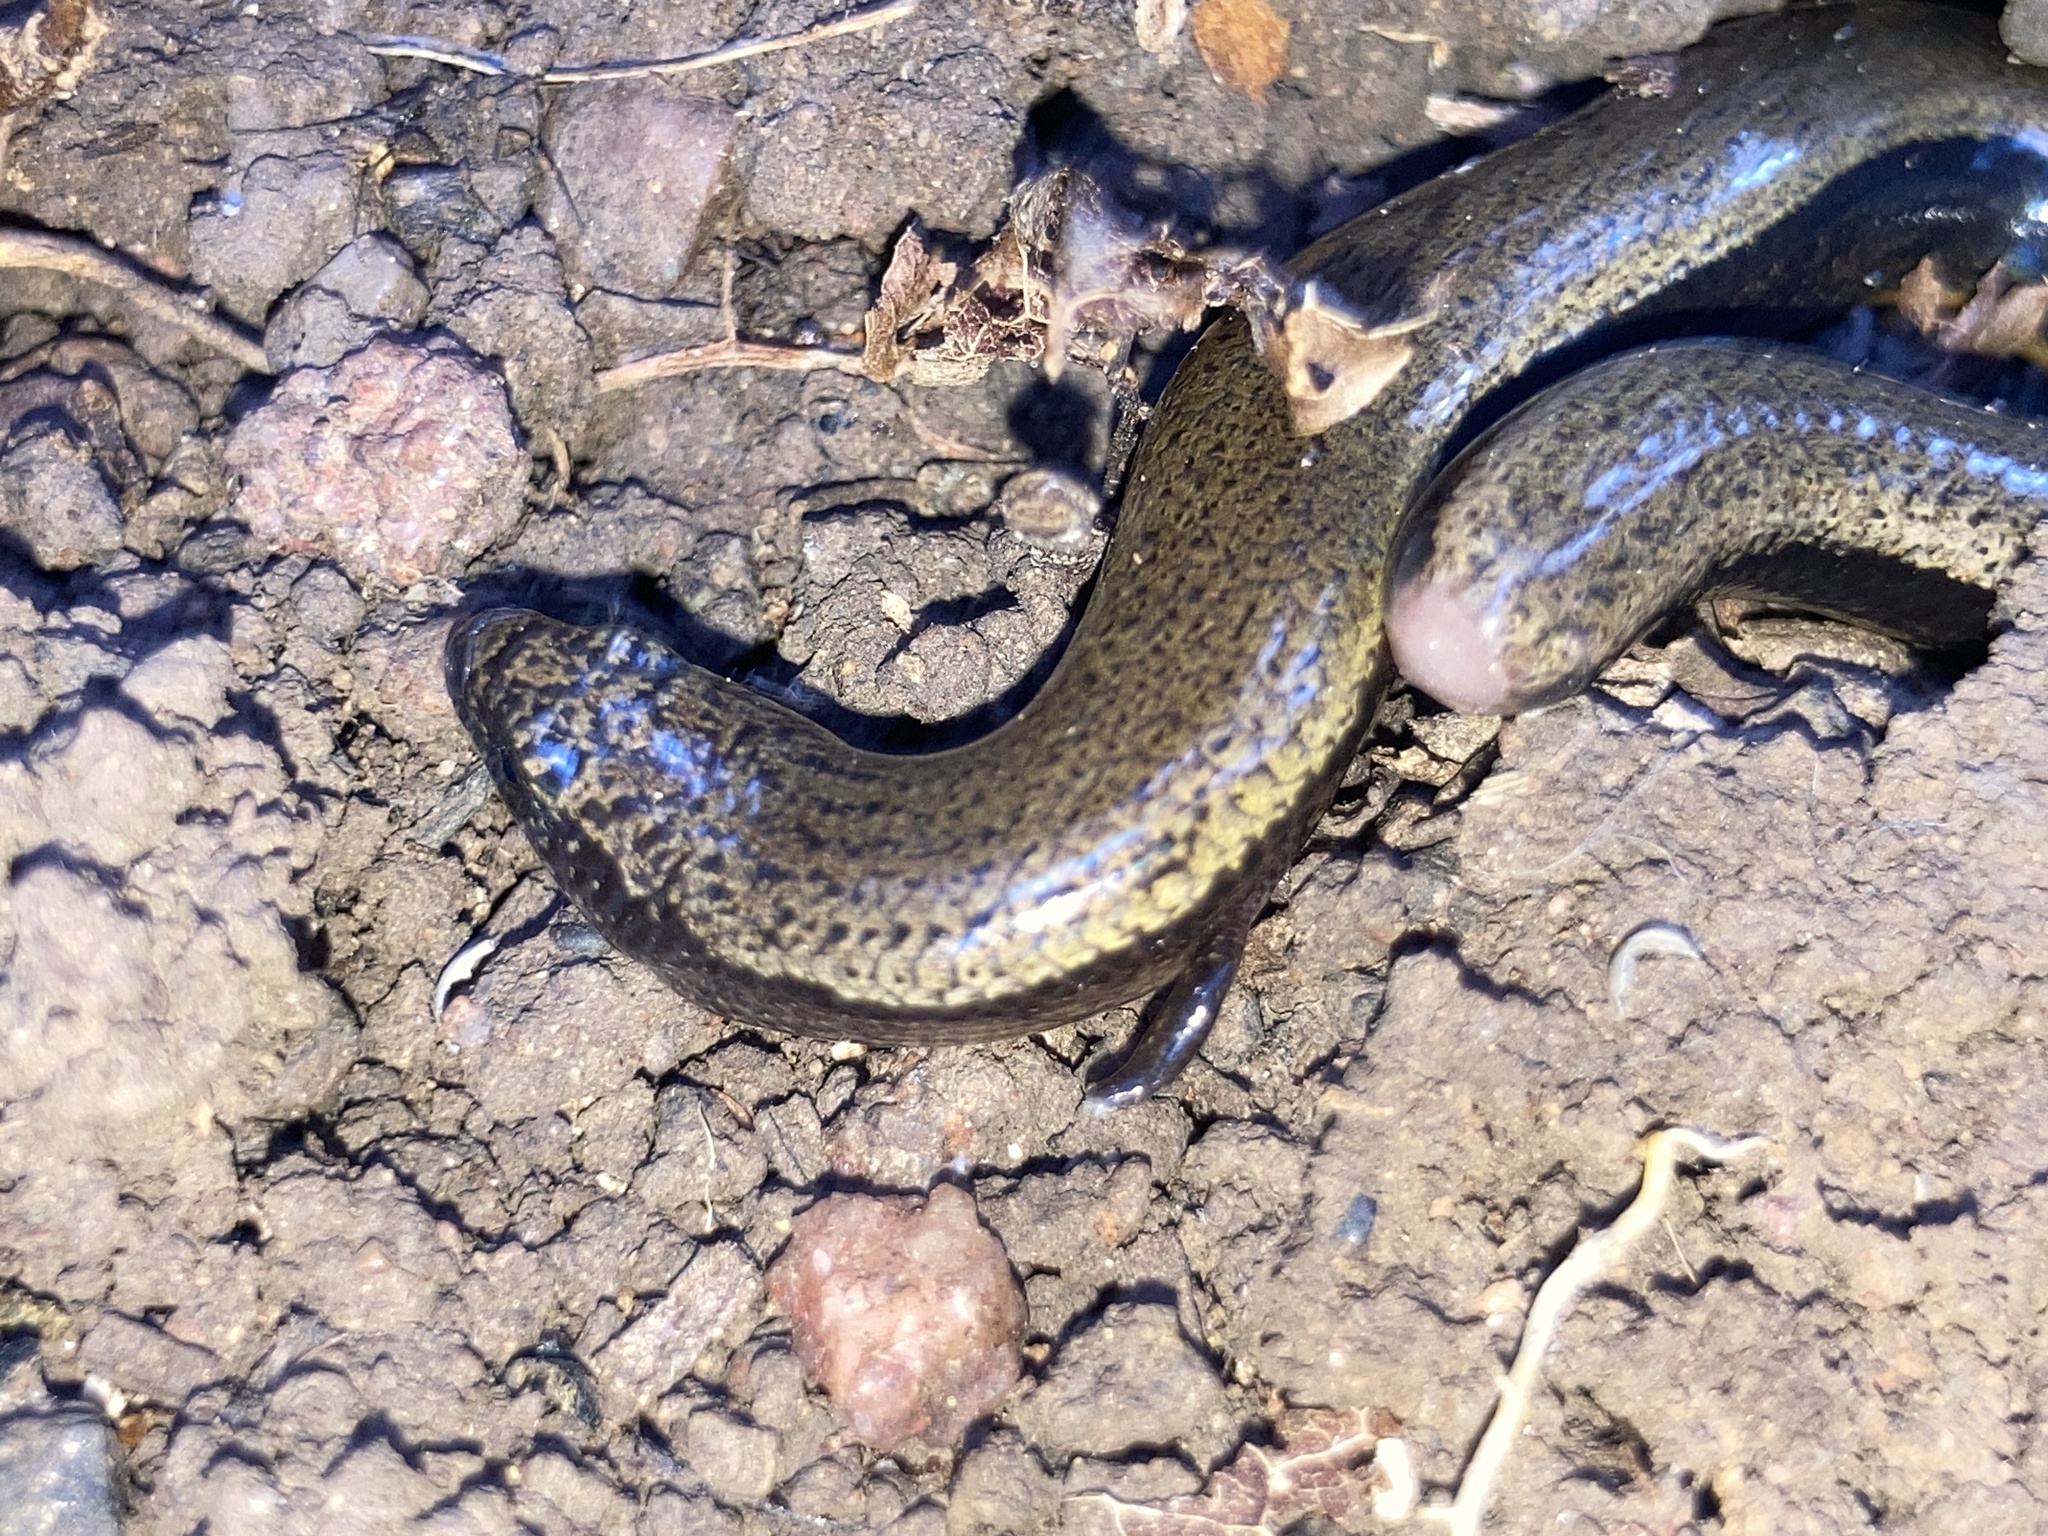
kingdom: Animalia
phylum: Chordata
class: Squamata
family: Scincidae
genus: Saiphos
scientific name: Saiphos equalis
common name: Three-toed skink
